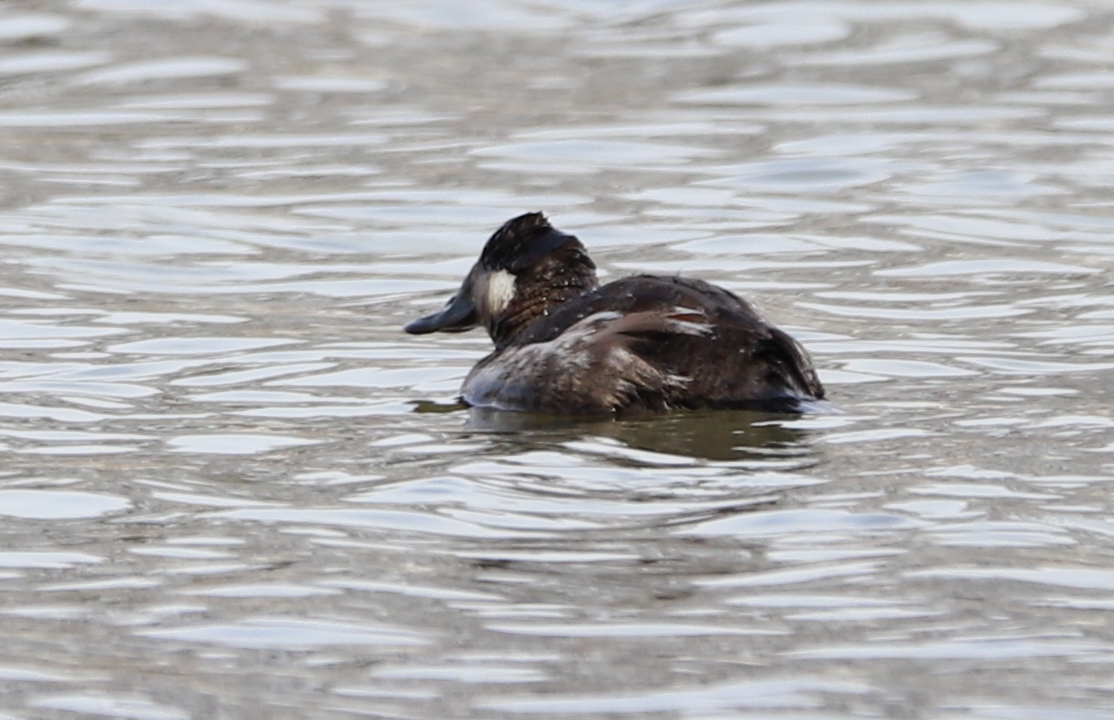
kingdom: Animalia
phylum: Chordata
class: Aves
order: Anseriformes
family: Anatidae
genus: Oxyura
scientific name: Oxyura jamaicensis
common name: Ruddy duck
